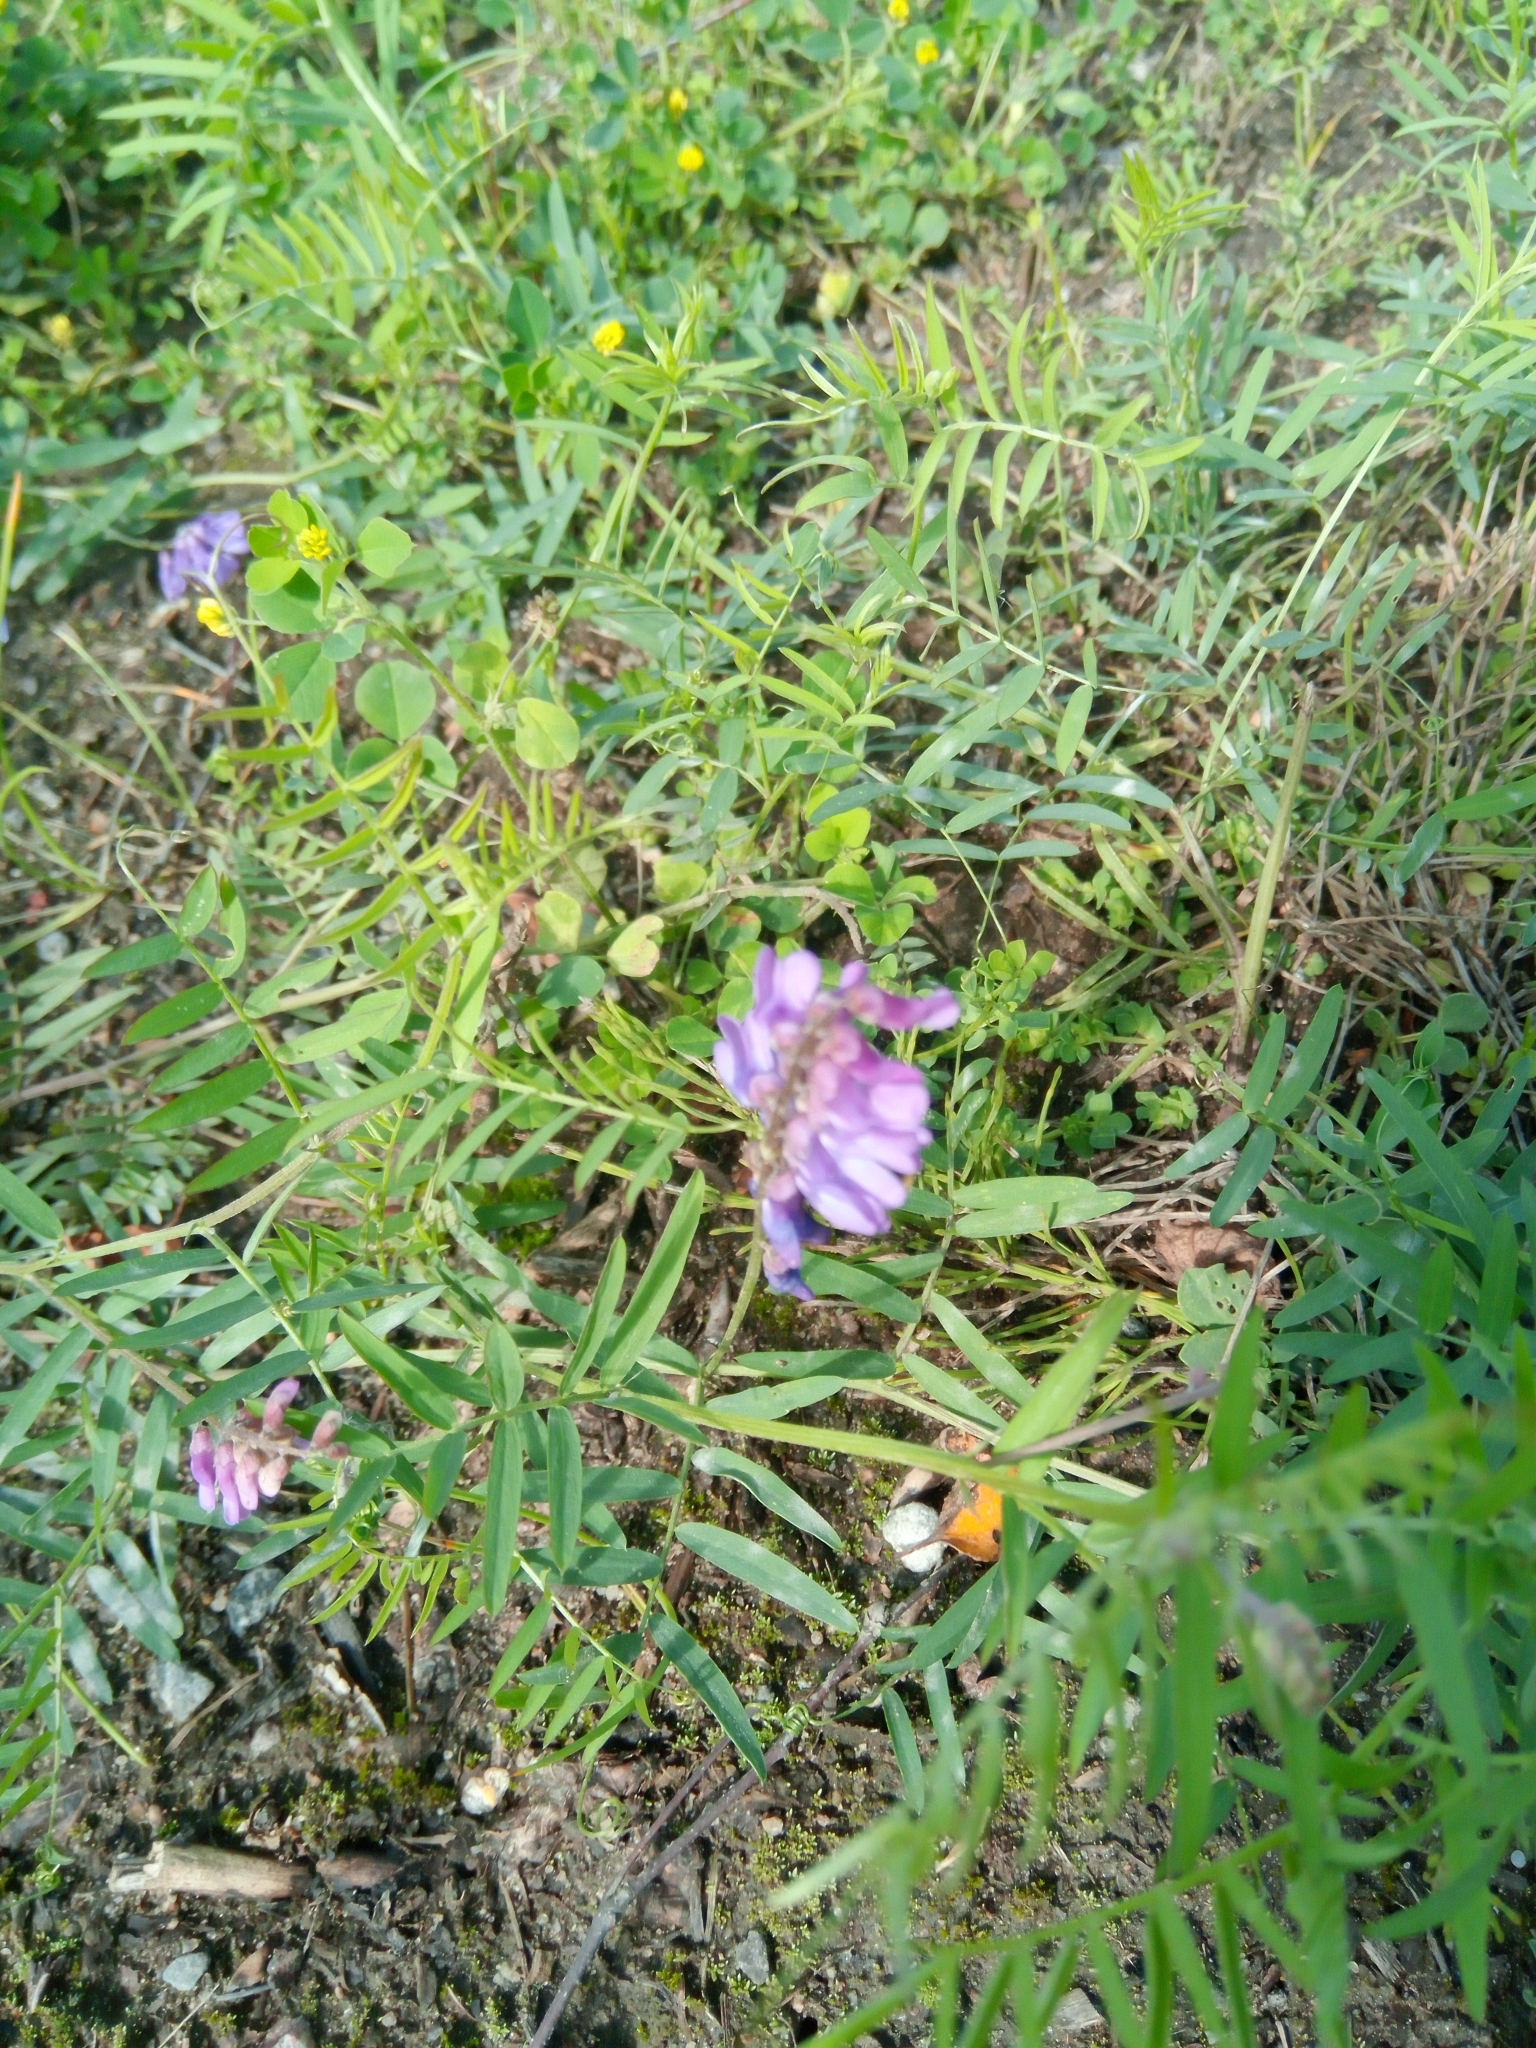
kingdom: Plantae
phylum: Tracheophyta
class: Magnoliopsida
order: Fabales
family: Fabaceae
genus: Vicia
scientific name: Vicia cracca
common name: Bird vetch
